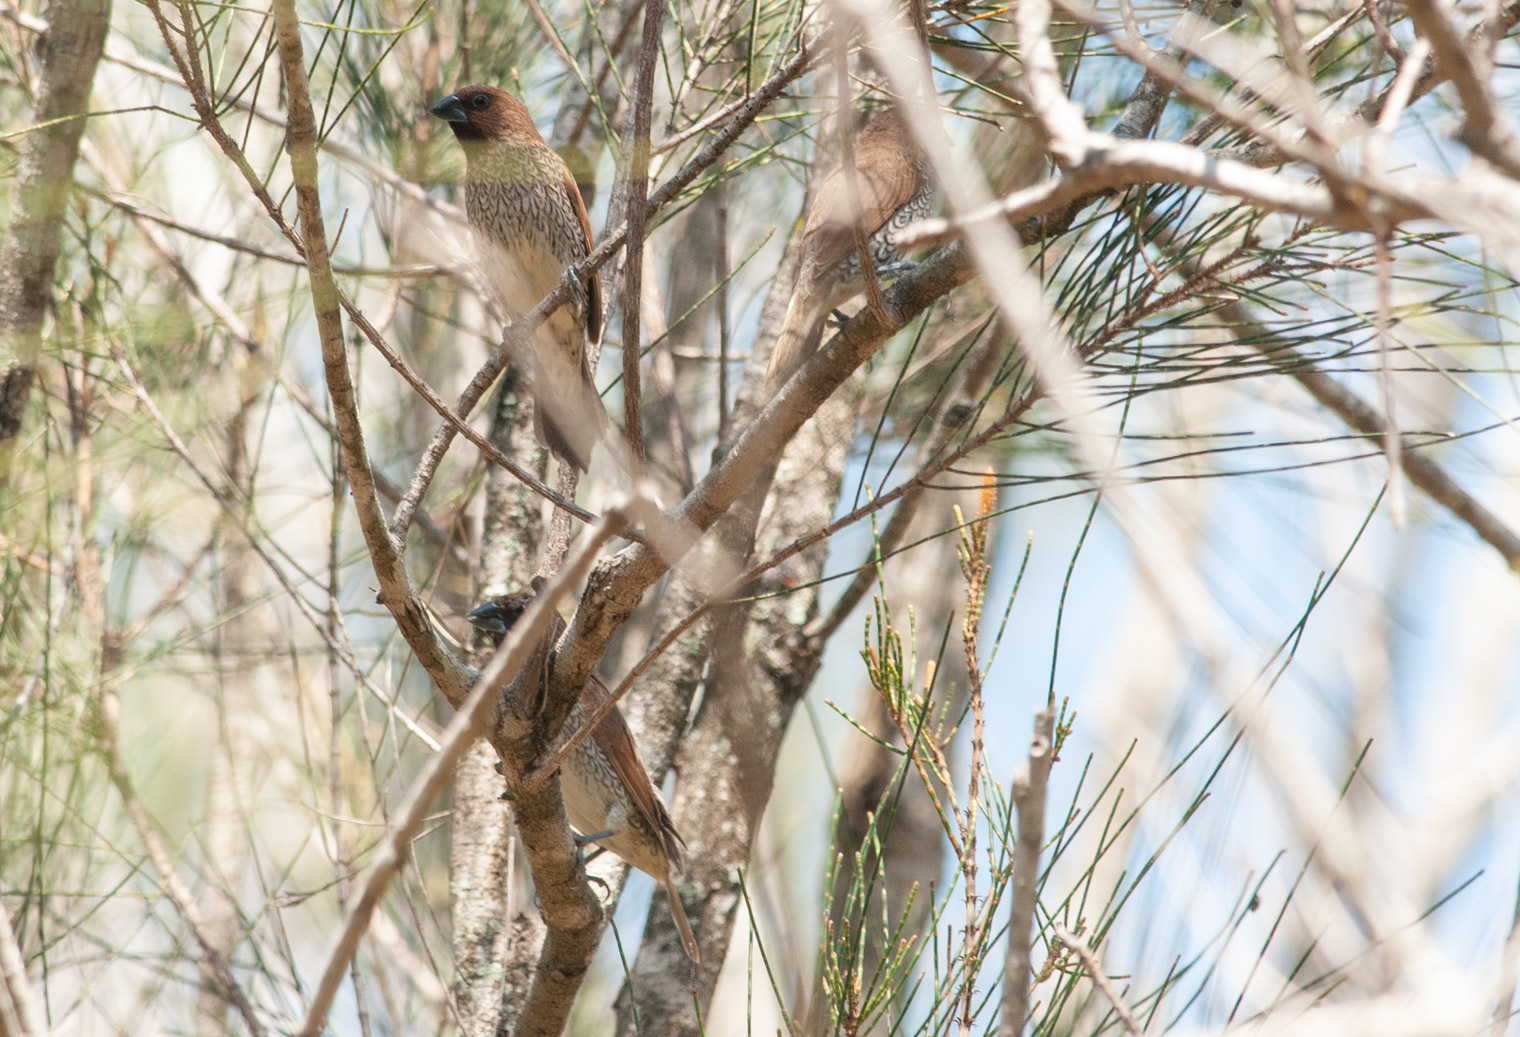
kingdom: Animalia
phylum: Chordata
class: Aves
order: Passeriformes
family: Estrildidae
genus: Lonchura
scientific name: Lonchura punctulata
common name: Scaly-breasted munia
